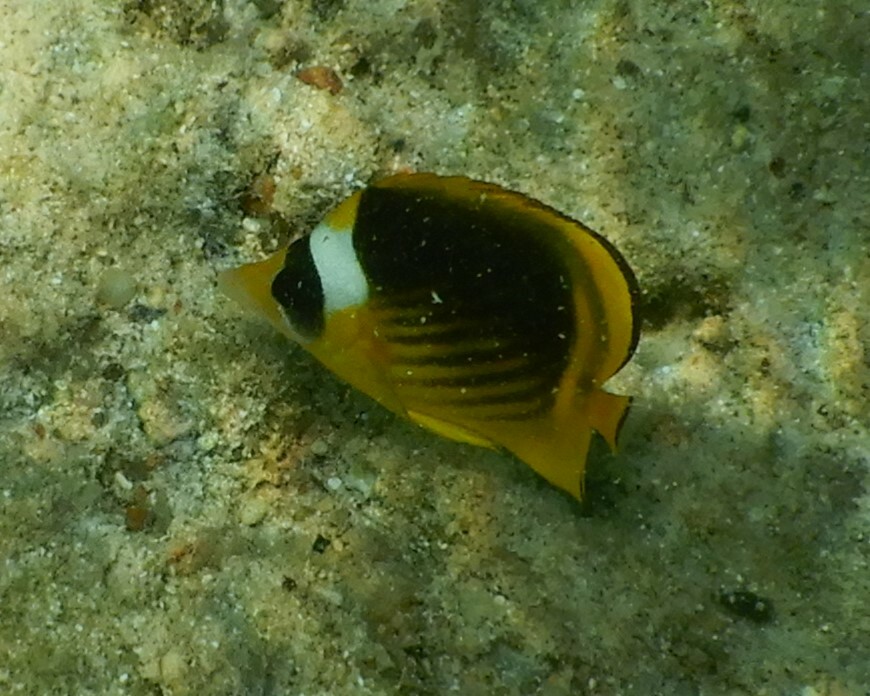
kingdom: Animalia
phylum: Chordata
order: Perciformes
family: Chaetodontidae
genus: Chaetodon
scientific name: Chaetodon fasciatus
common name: Diagonal butterflyfish
